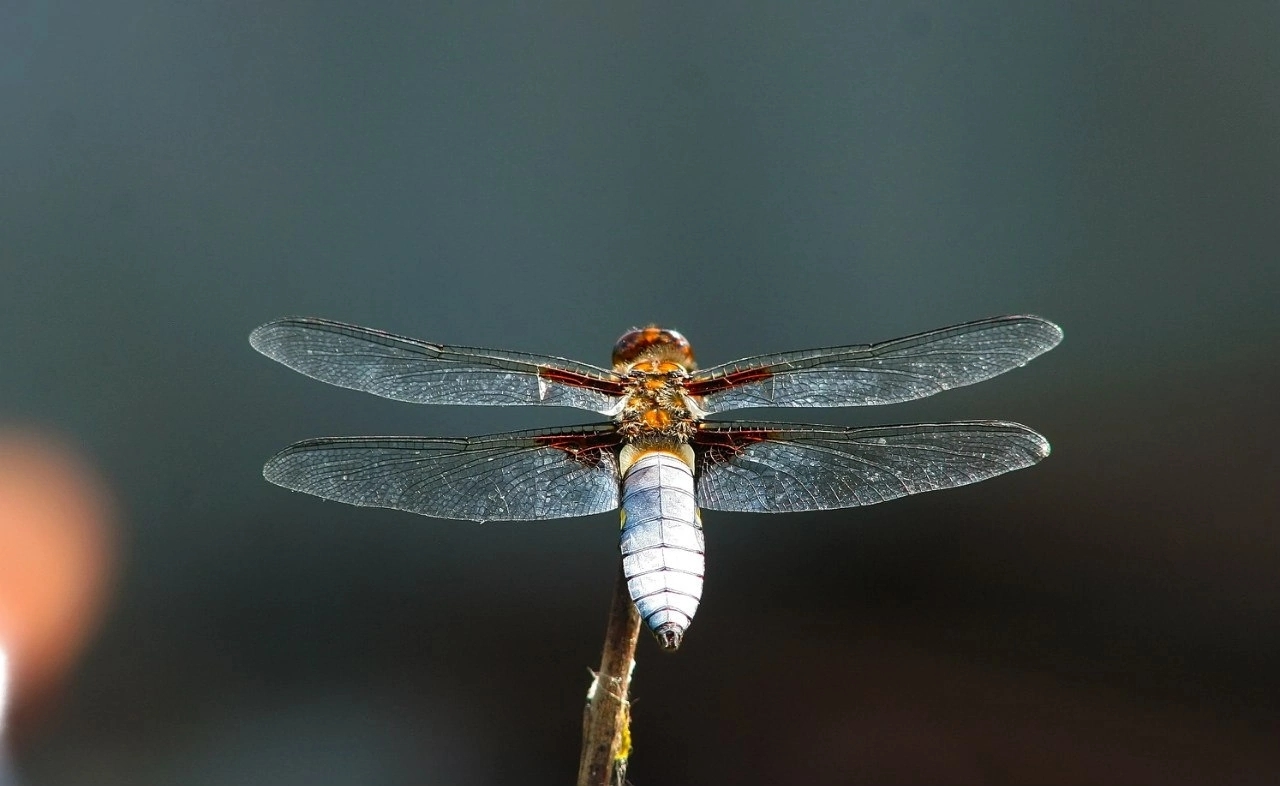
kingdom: Animalia
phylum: Arthropoda
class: Insecta
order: Odonata
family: Libellulidae
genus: Libellula
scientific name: Libellula depressa
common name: Broad-bodied chaser
